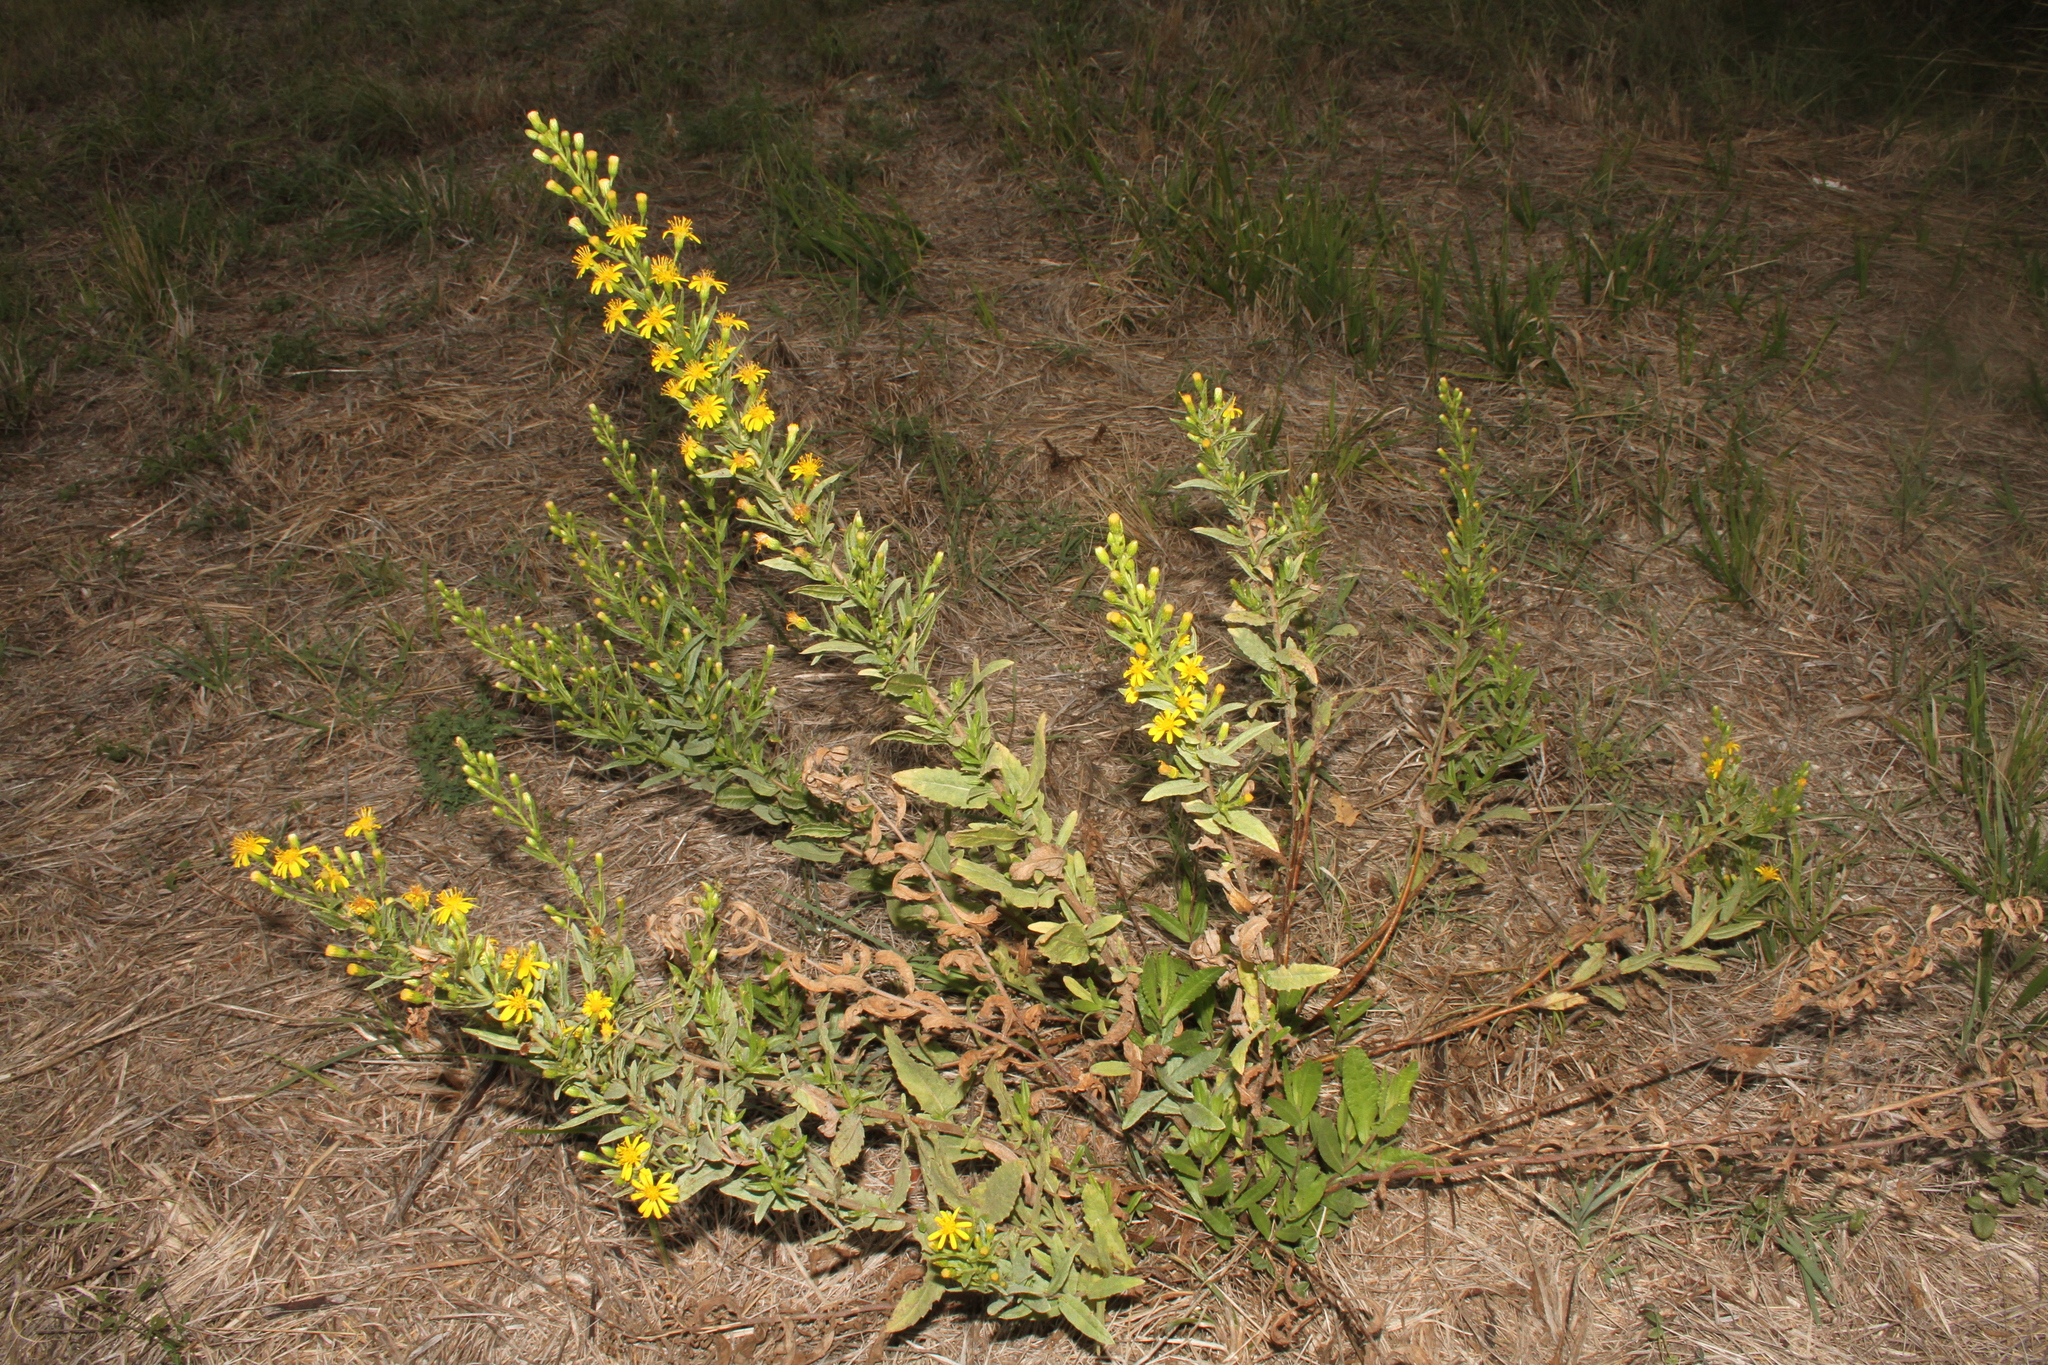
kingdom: Plantae
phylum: Tracheophyta
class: Magnoliopsida
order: Asterales
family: Asteraceae
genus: Dittrichia
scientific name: Dittrichia viscosa
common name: Woody fleabane
